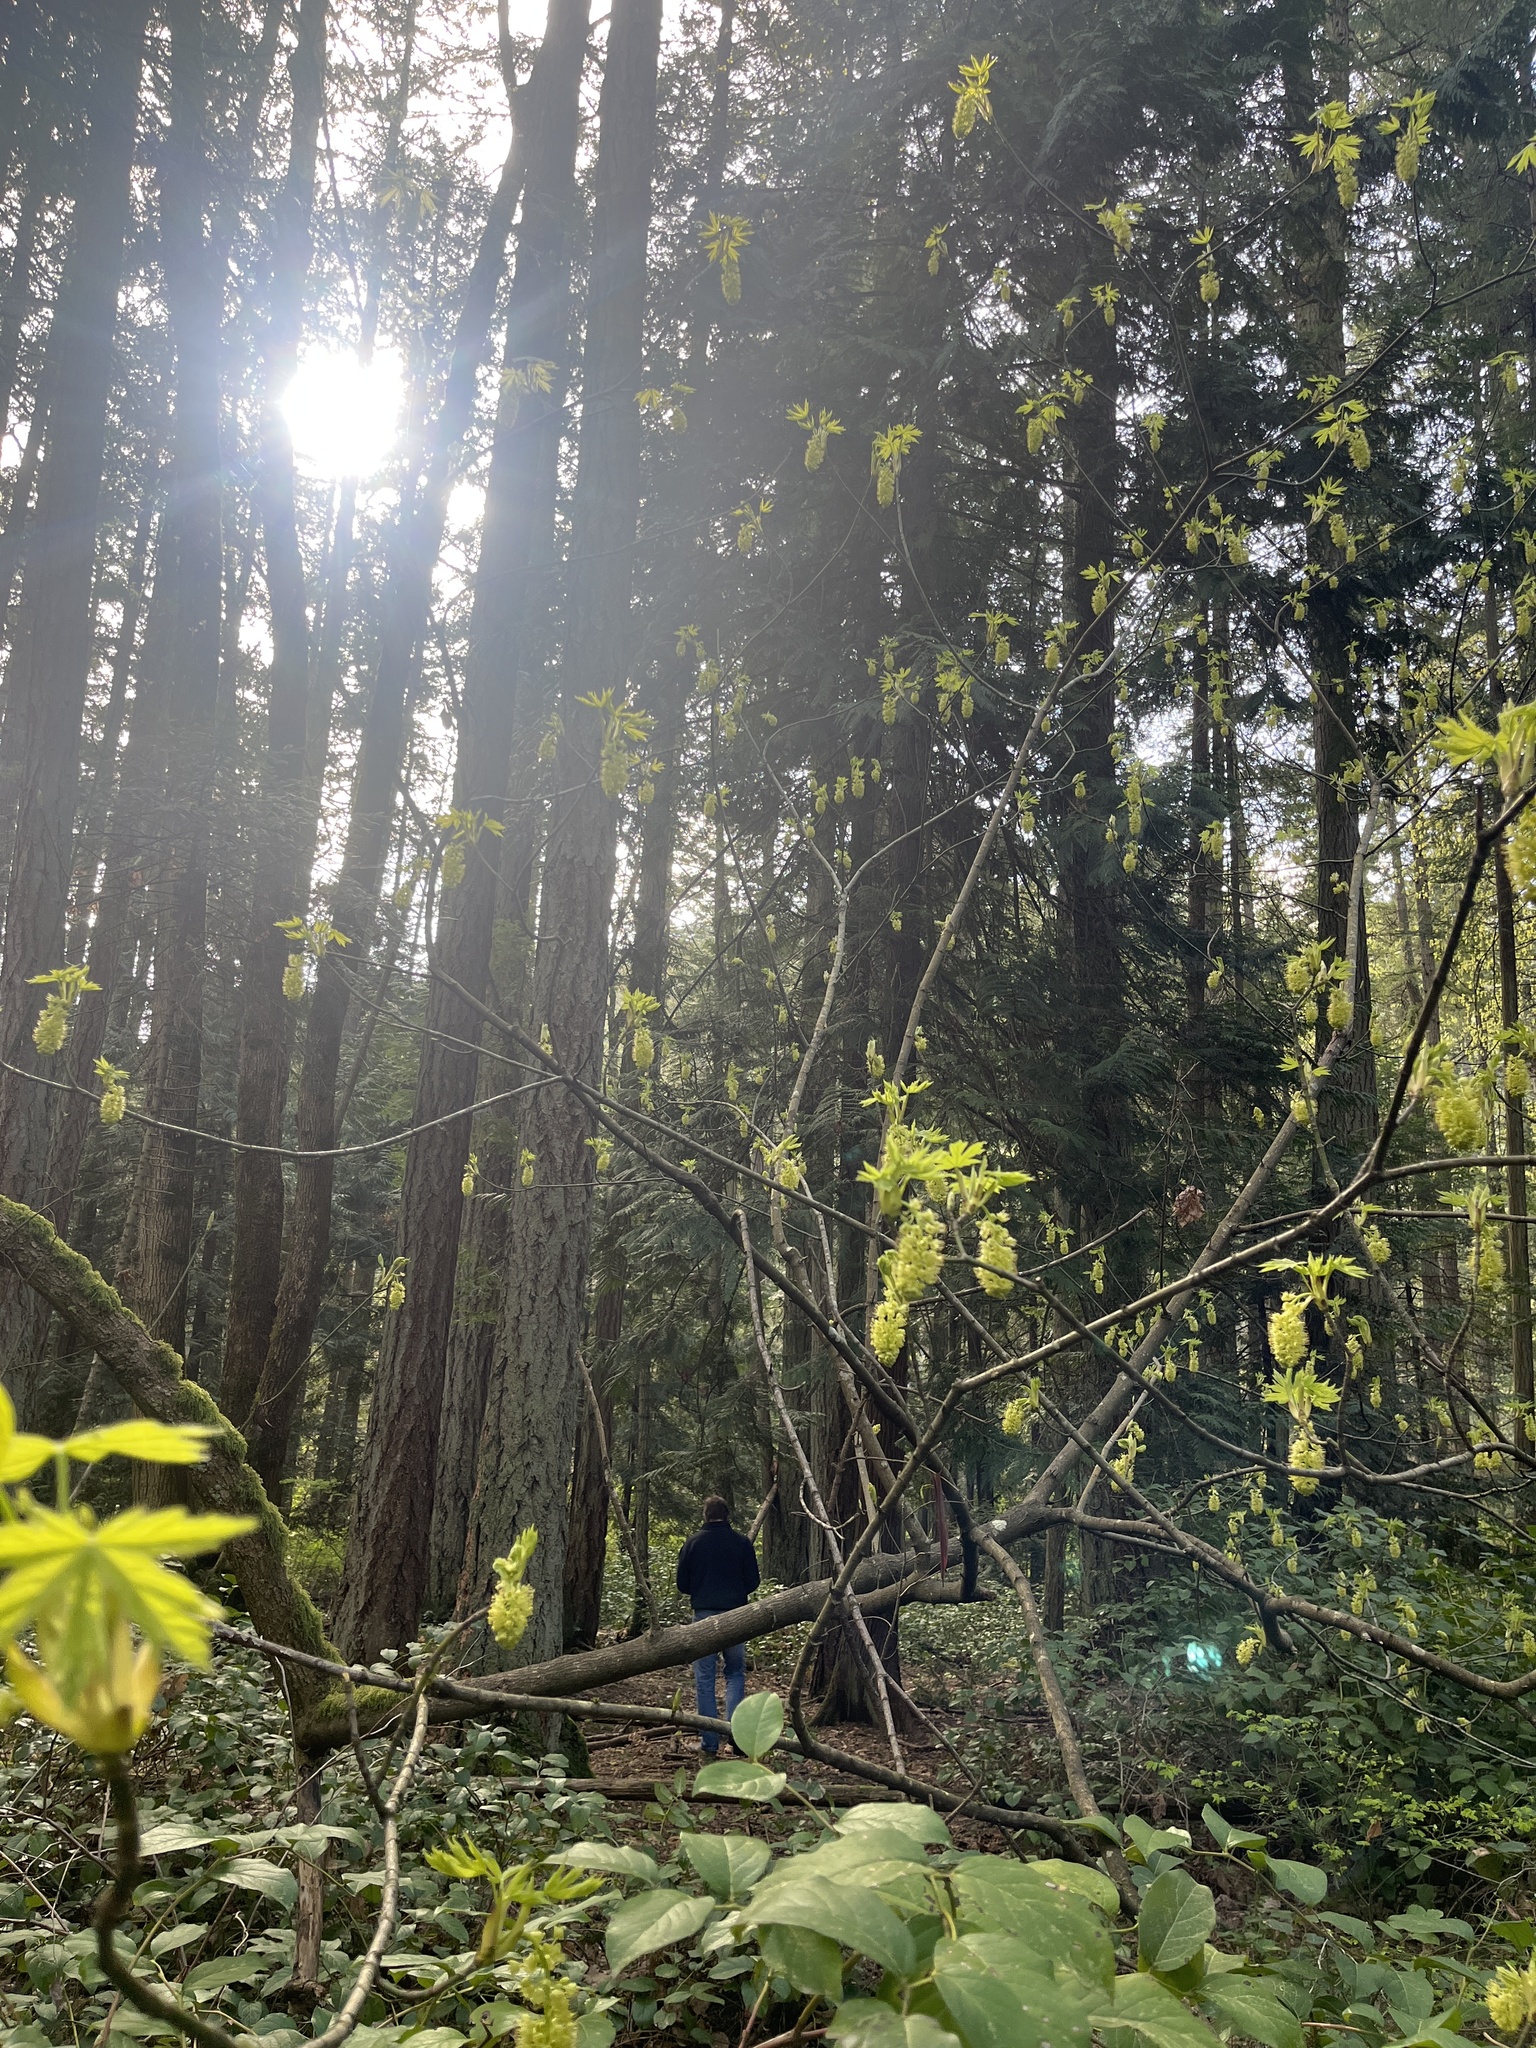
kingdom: Plantae
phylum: Tracheophyta
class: Magnoliopsida
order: Sapindales
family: Sapindaceae
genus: Acer
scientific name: Acer macrophyllum
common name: Oregon maple
